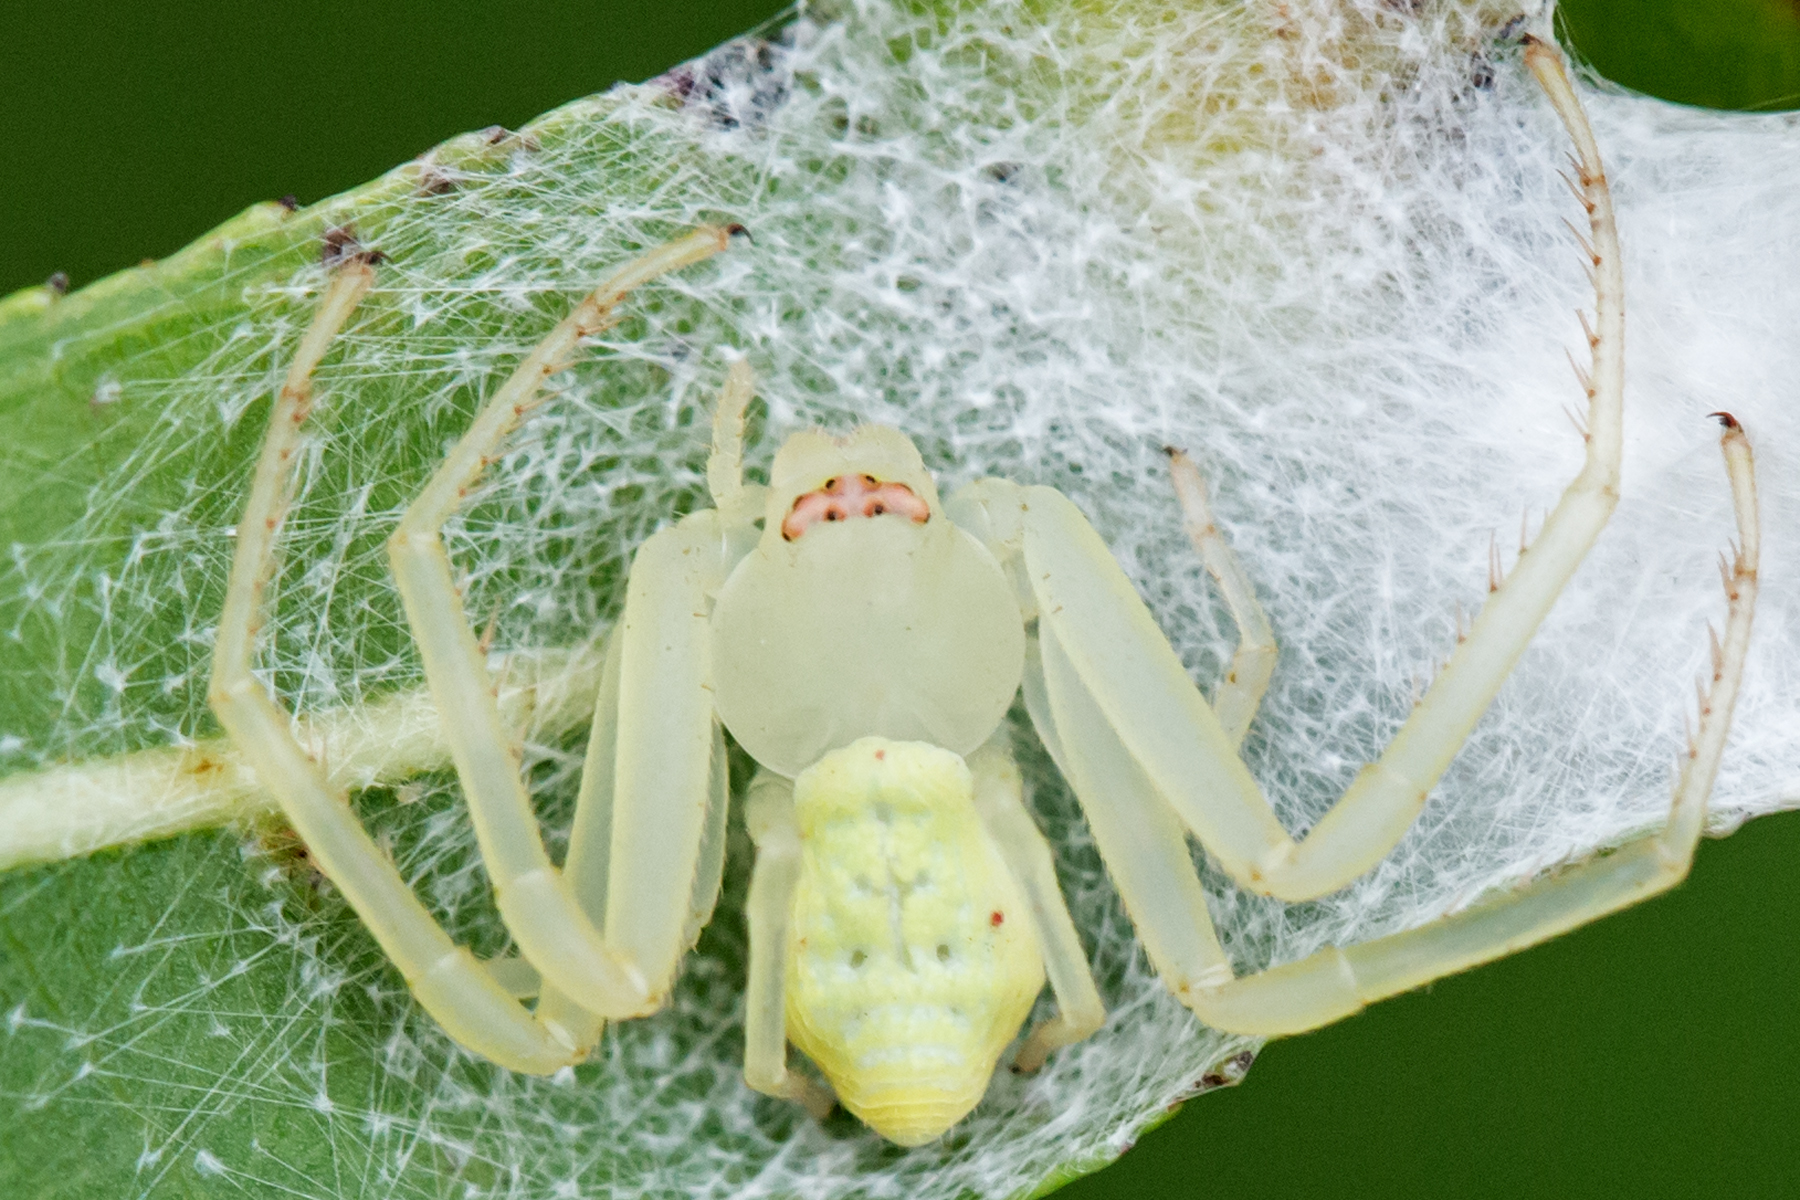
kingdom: Animalia
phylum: Arthropoda
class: Arachnida
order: Araneae
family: Thomisidae
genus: Misumessus
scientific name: Misumessus oblongus
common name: American green crab spider
